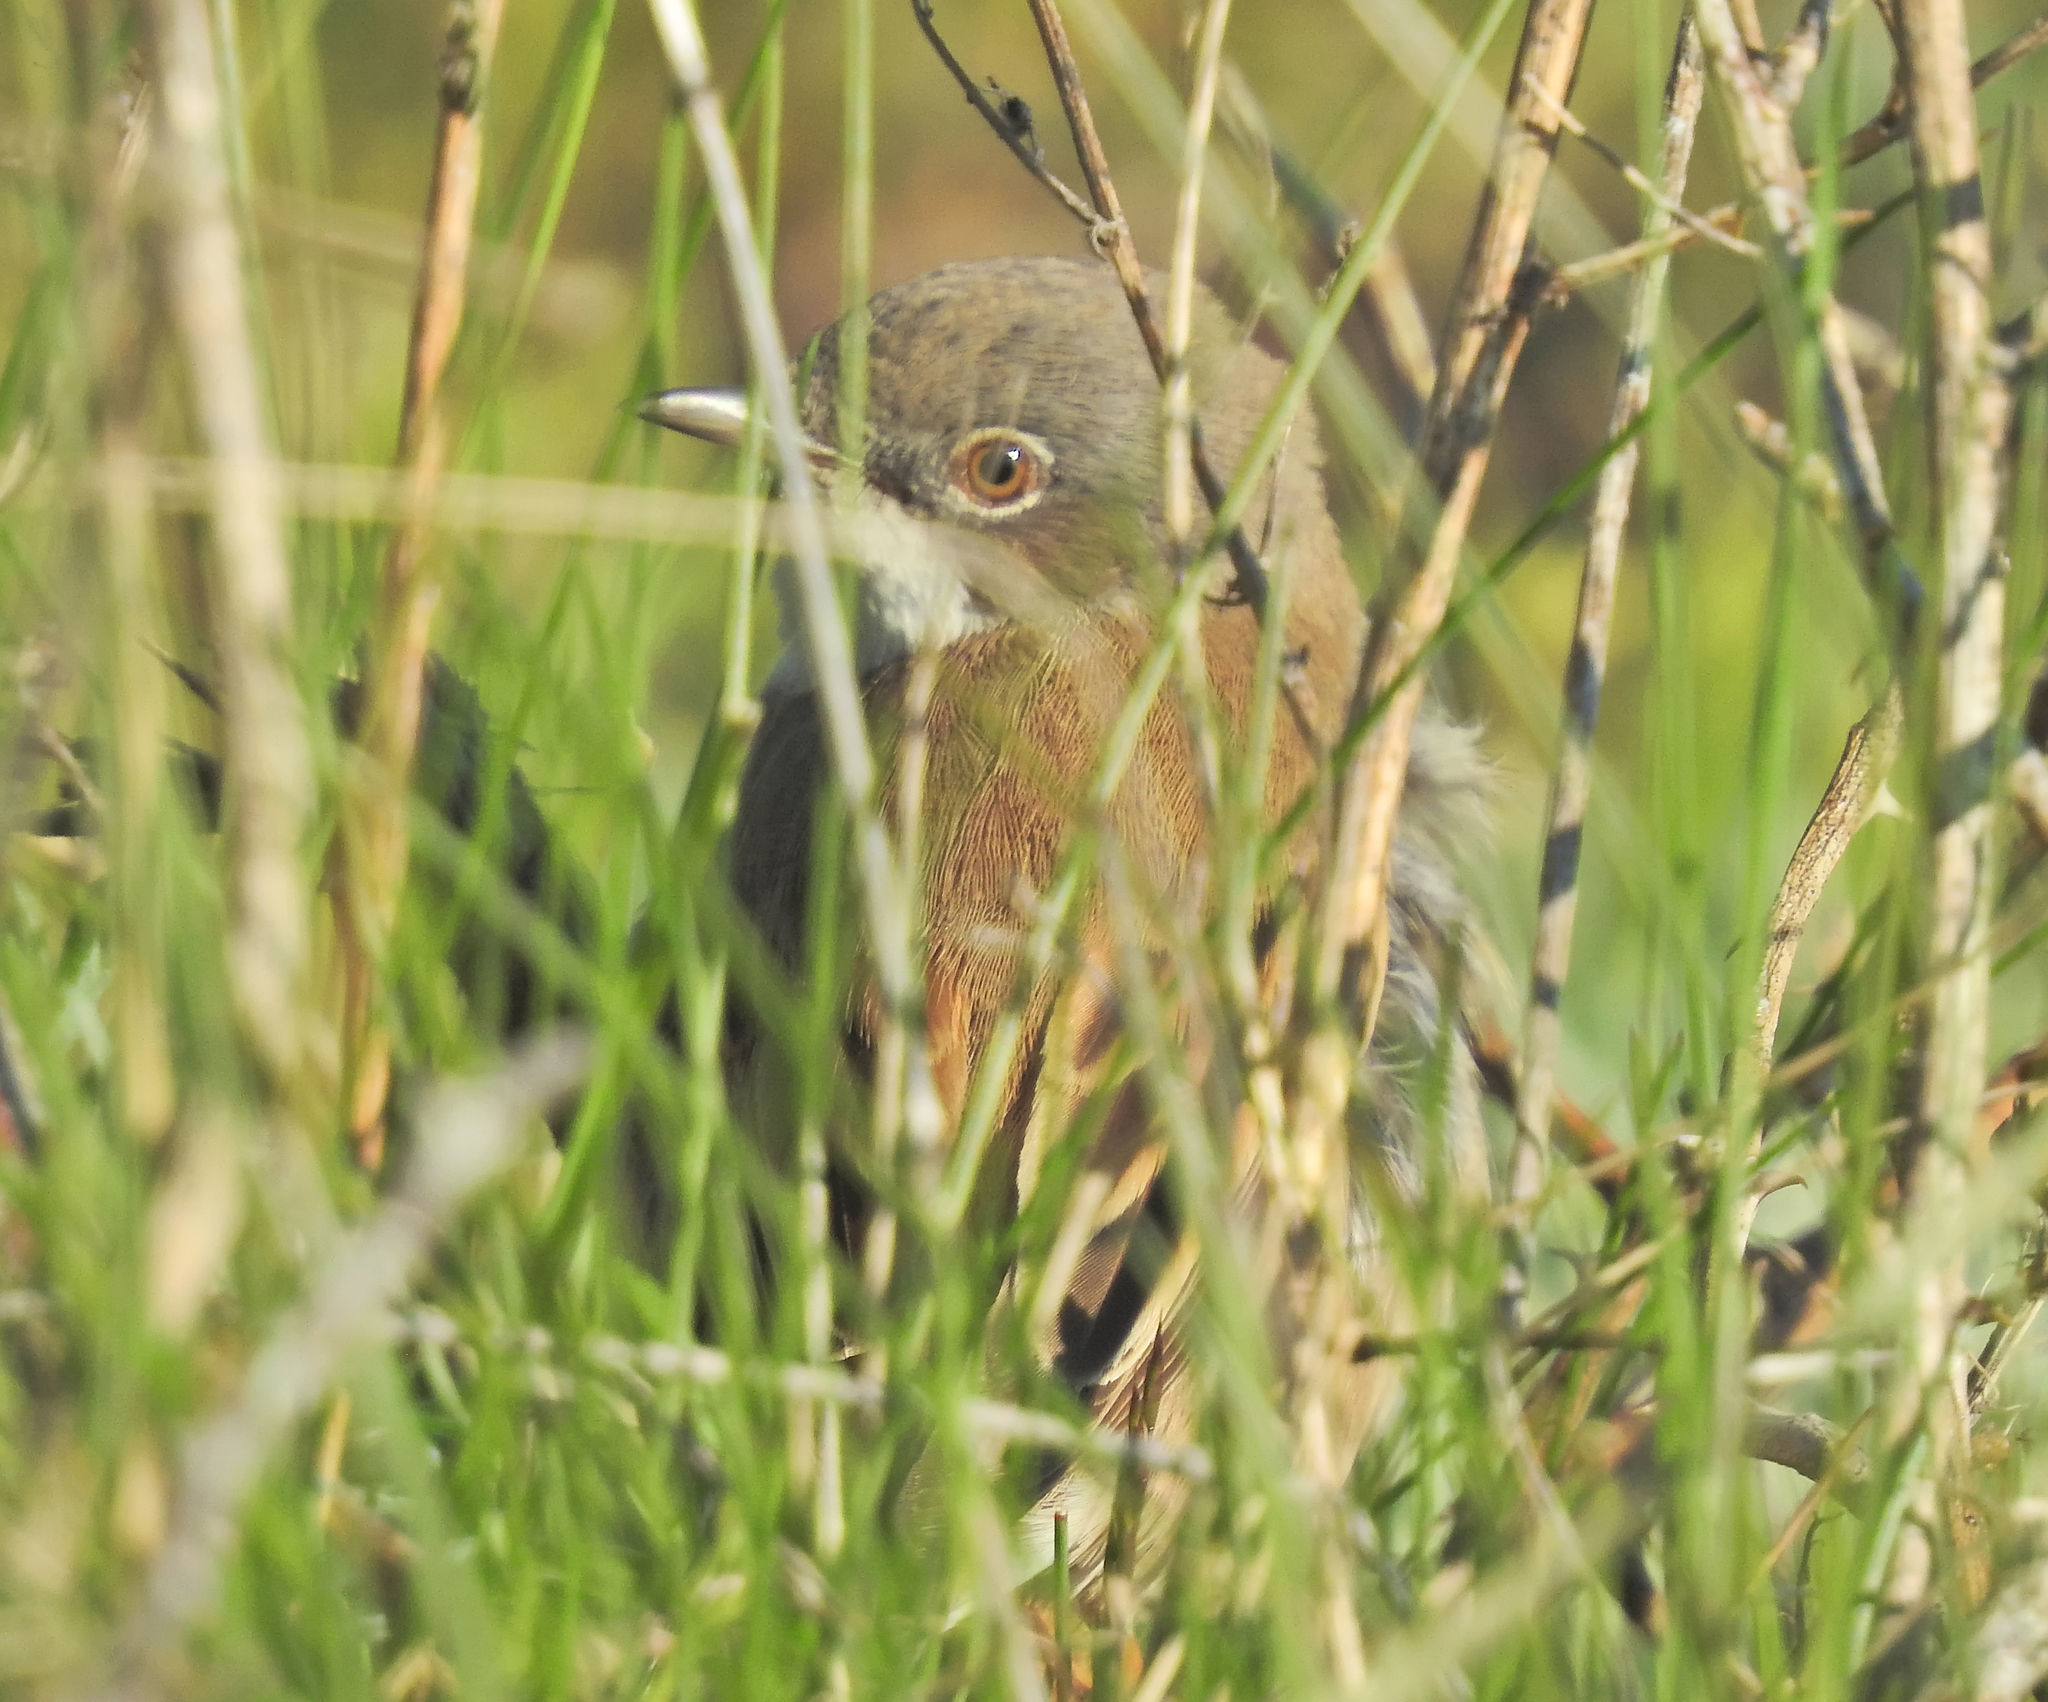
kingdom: Animalia
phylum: Chordata
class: Aves
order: Passeriformes
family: Sylviidae
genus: Sylvia
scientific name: Sylvia communis
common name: Common whitethroat
